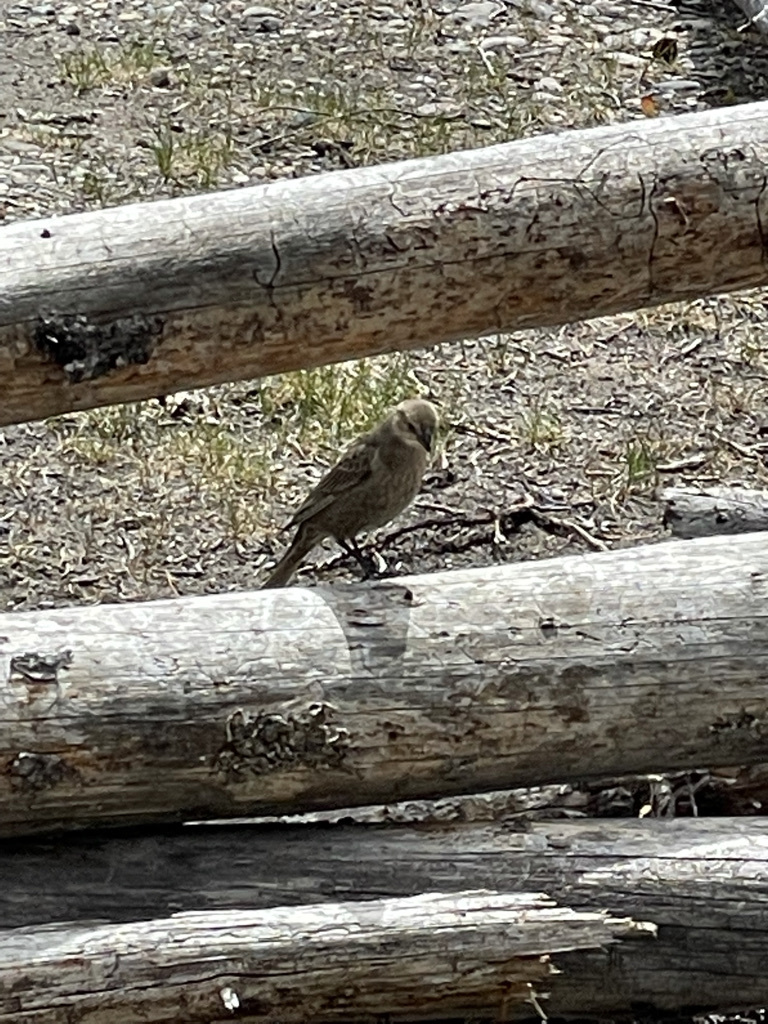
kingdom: Animalia
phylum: Chordata
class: Aves
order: Passeriformes
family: Icteridae
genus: Molothrus
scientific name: Molothrus ater
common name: Brown-headed cowbird
